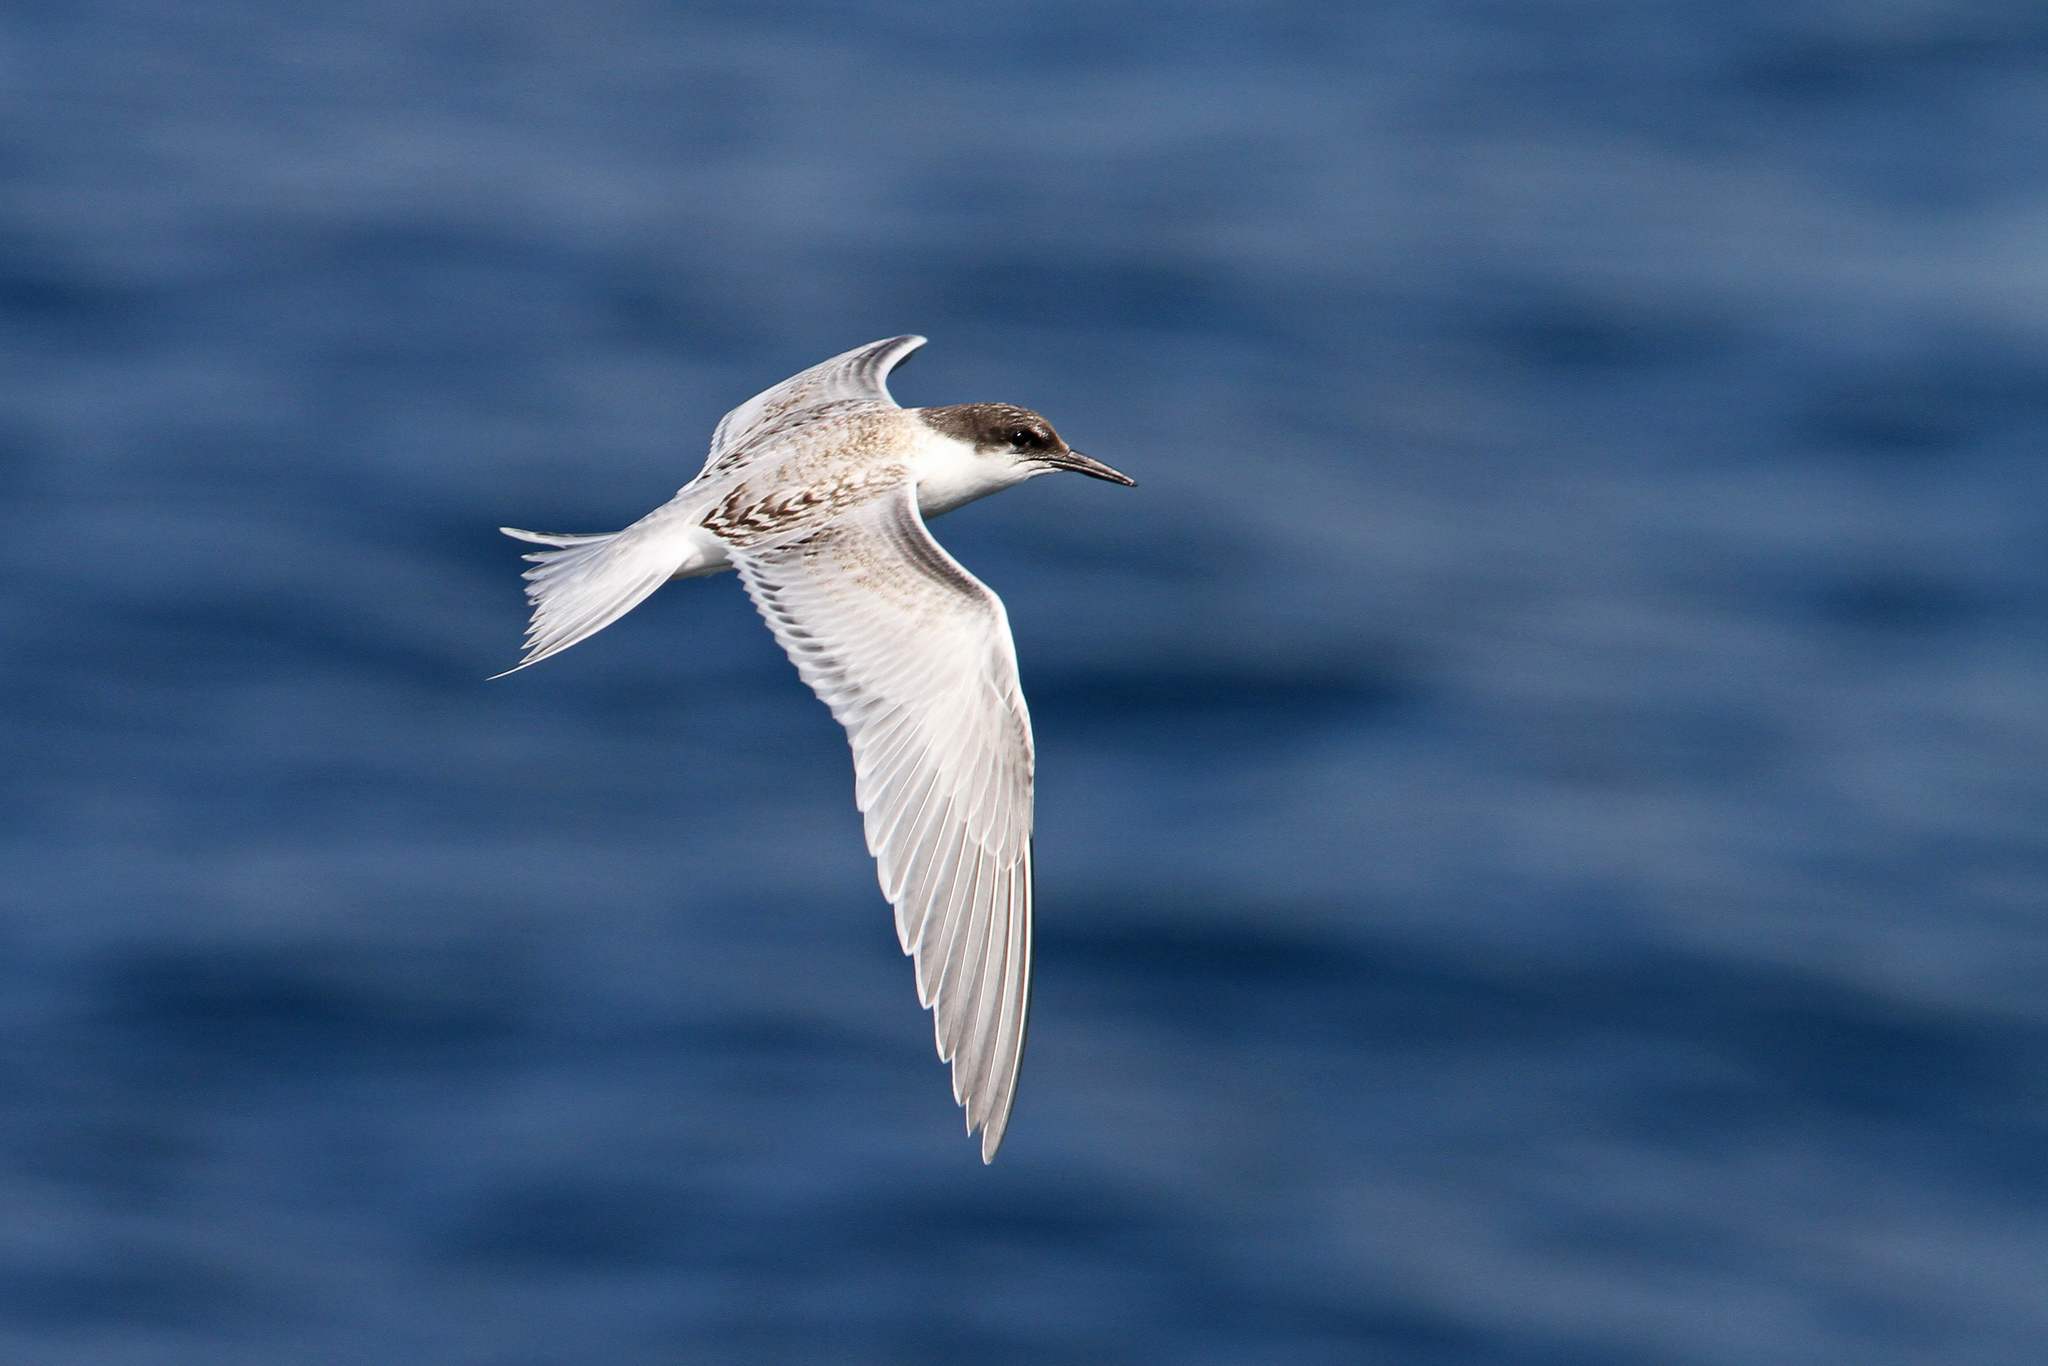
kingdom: Animalia
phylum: Chordata
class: Aves
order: Charadriiformes
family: Laridae
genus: Sterna
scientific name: Sterna dougallii
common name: Roseate tern
